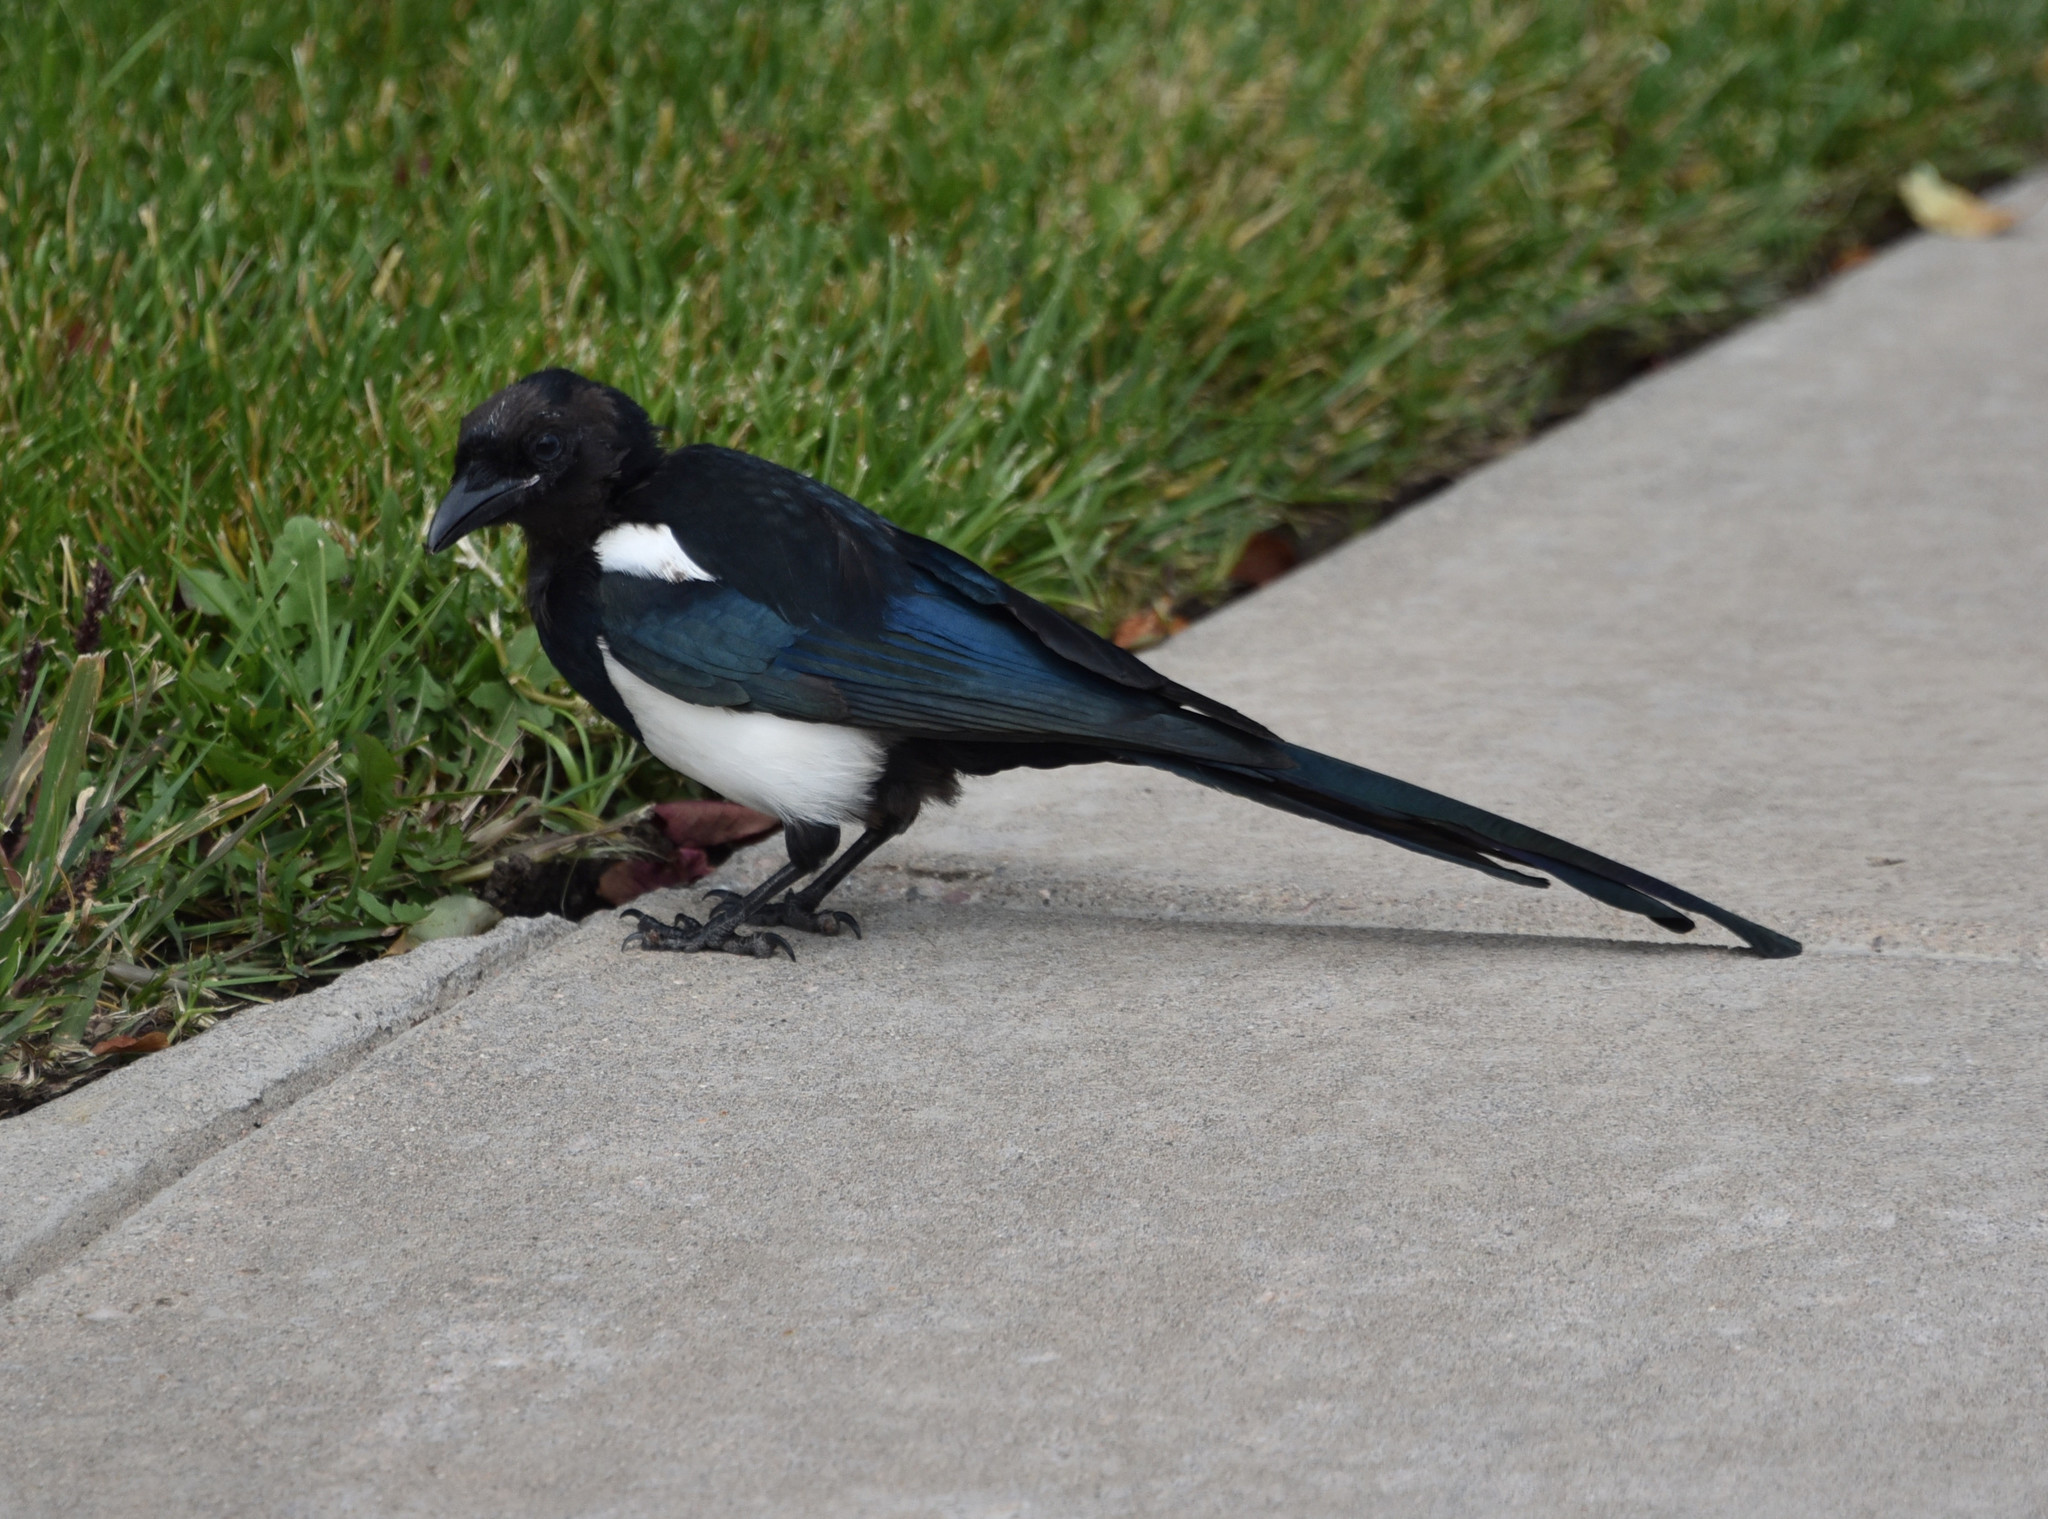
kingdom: Animalia
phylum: Chordata
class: Aves
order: Passeriformes
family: Corvidae
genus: Pica
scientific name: Pica hudsonia
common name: Black-billed magpie
